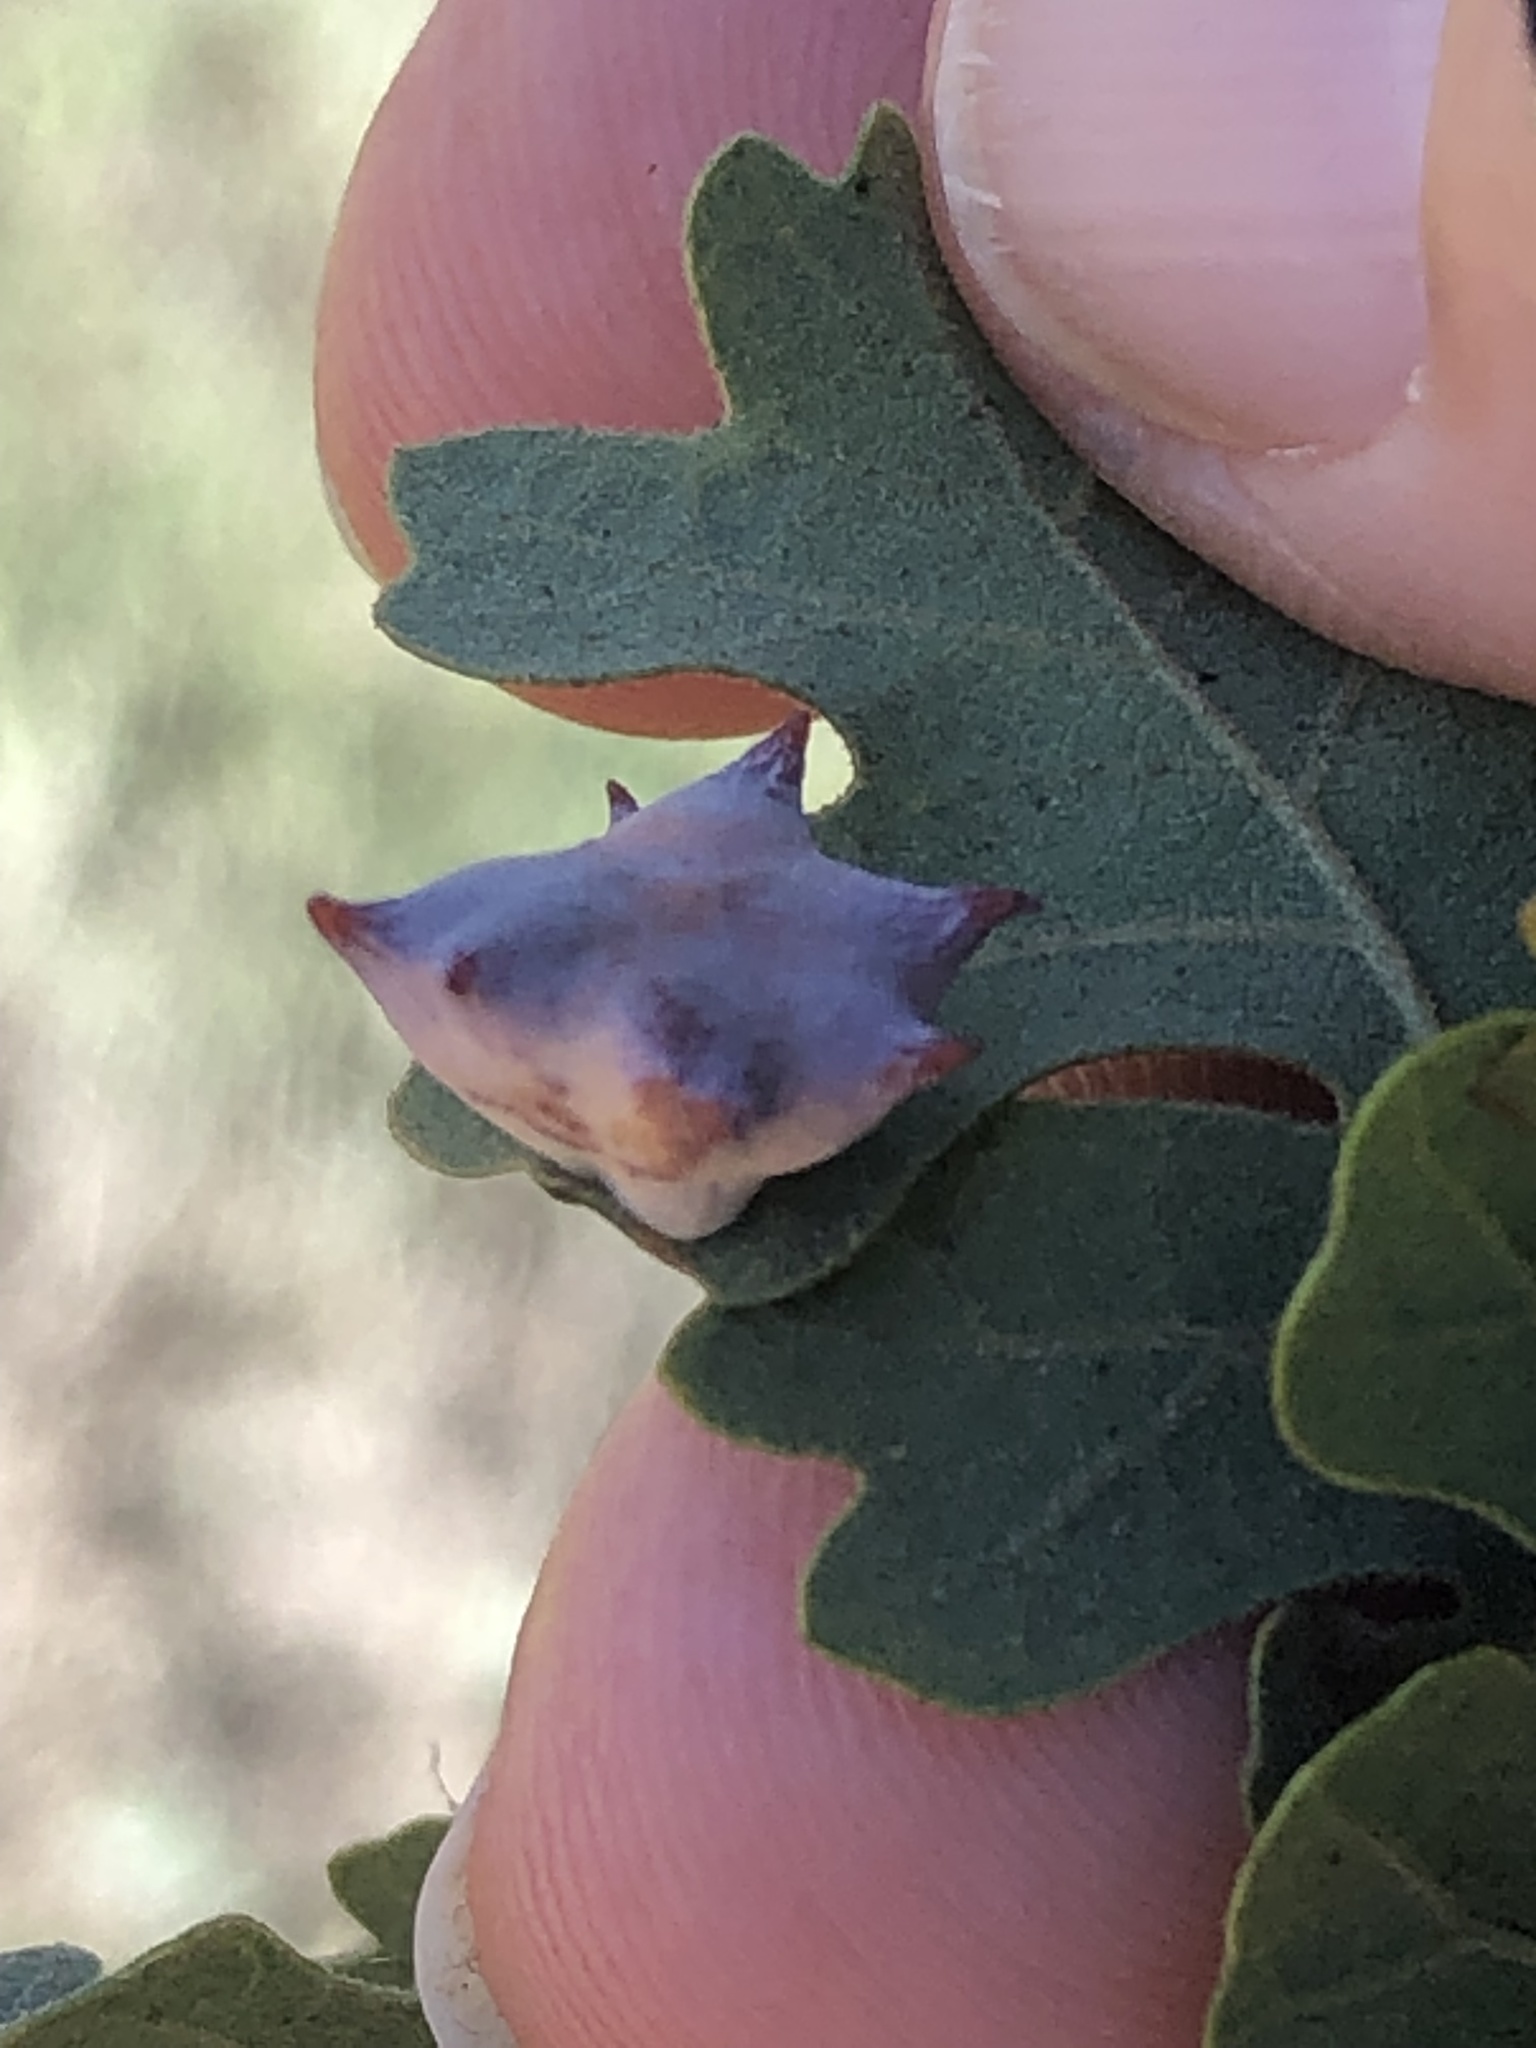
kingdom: Animalia
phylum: Arthropoda
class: Insecta
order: Hymenoptera
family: Cynipidae
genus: Cynips
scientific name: Cynips douglasi
